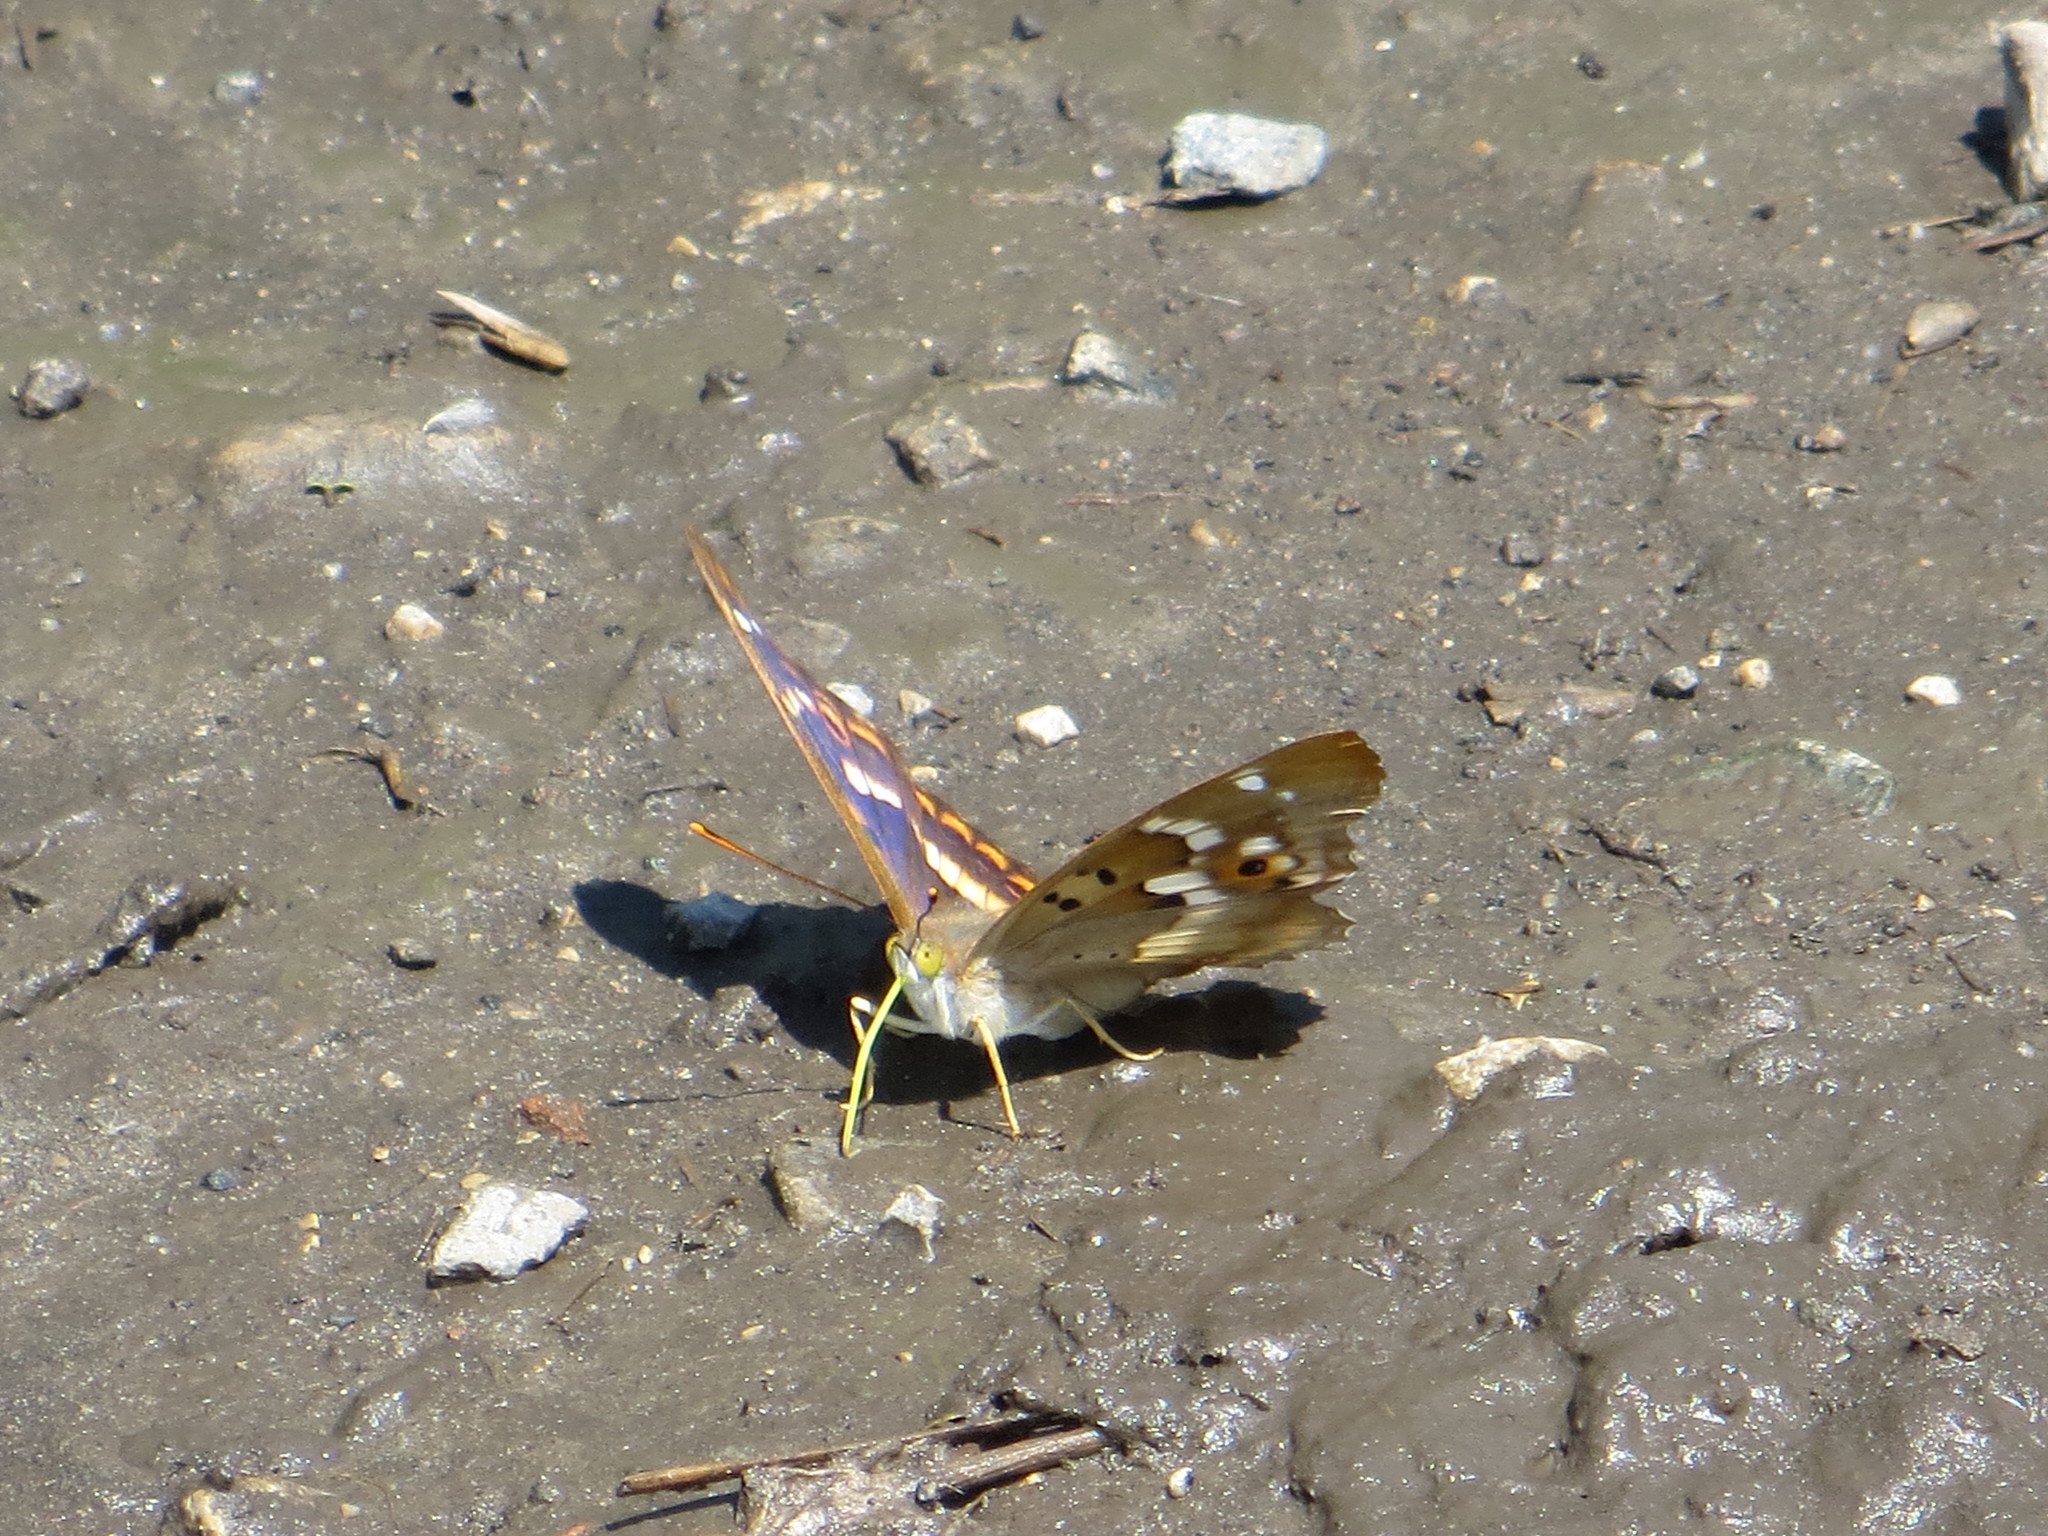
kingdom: Animalia
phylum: Arthropoda
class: Insecta
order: Lepidoptera
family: Nymphalidae
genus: Apatura
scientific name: Apatura ilia
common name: Lesser purple emperor
